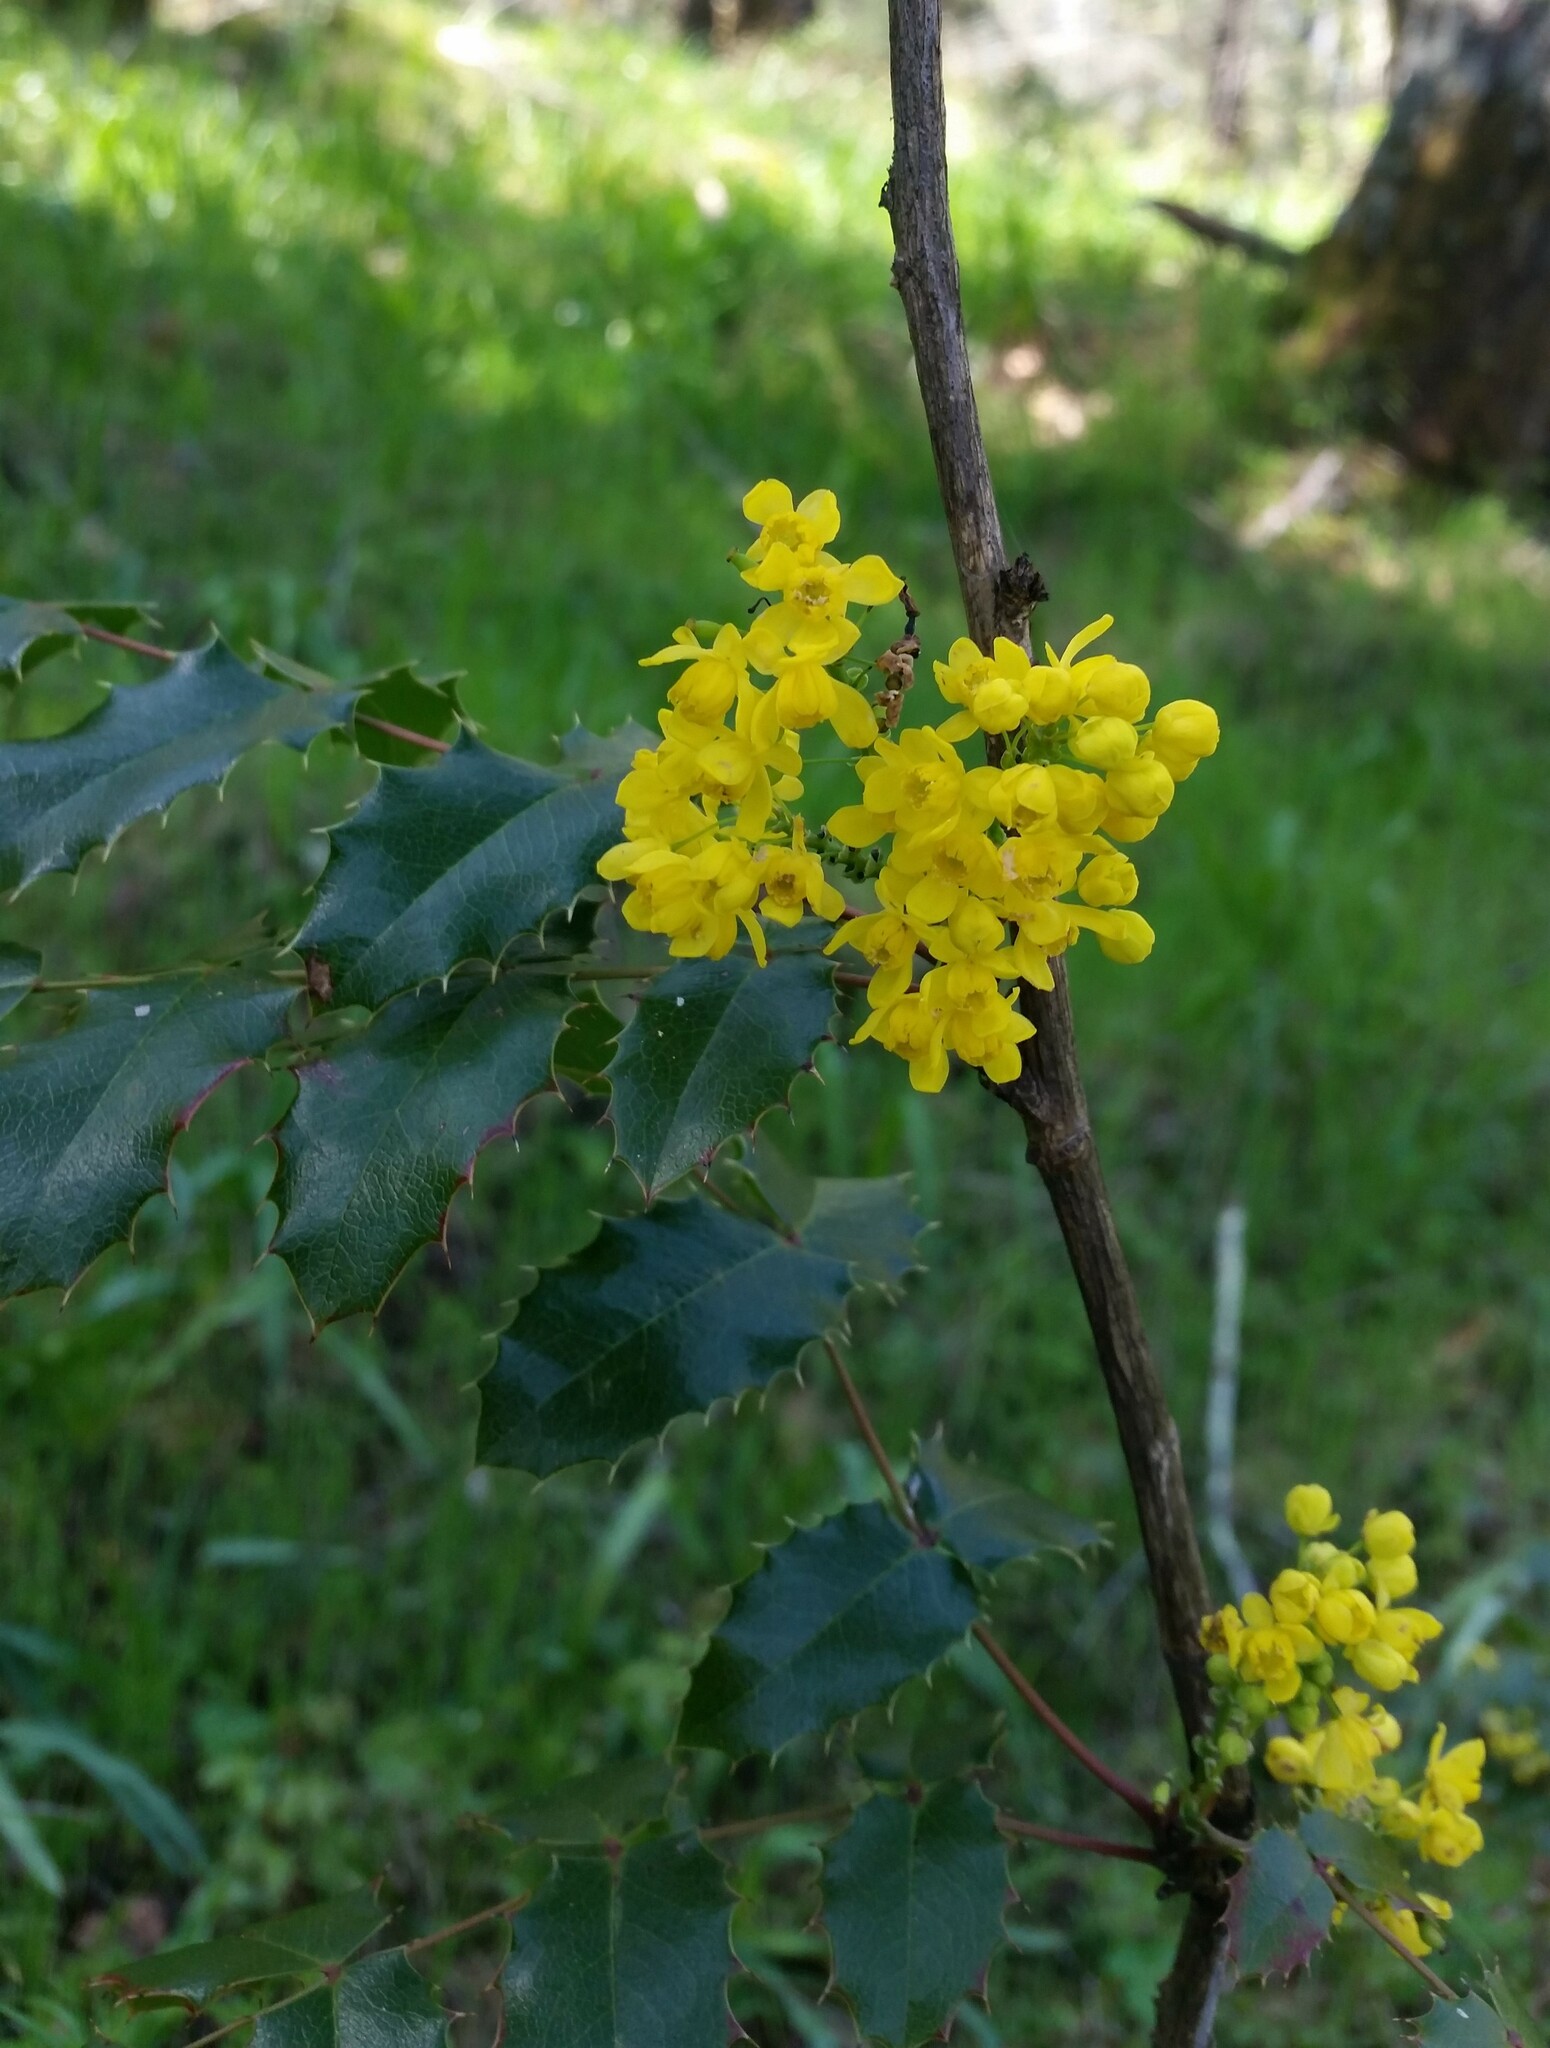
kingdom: Plantae
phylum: Tracheophyta
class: Magnoliopsida
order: Ranunculales
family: Berberidaceae
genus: Mahonia
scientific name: Mahonia aquifolium
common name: Oregon-grape
